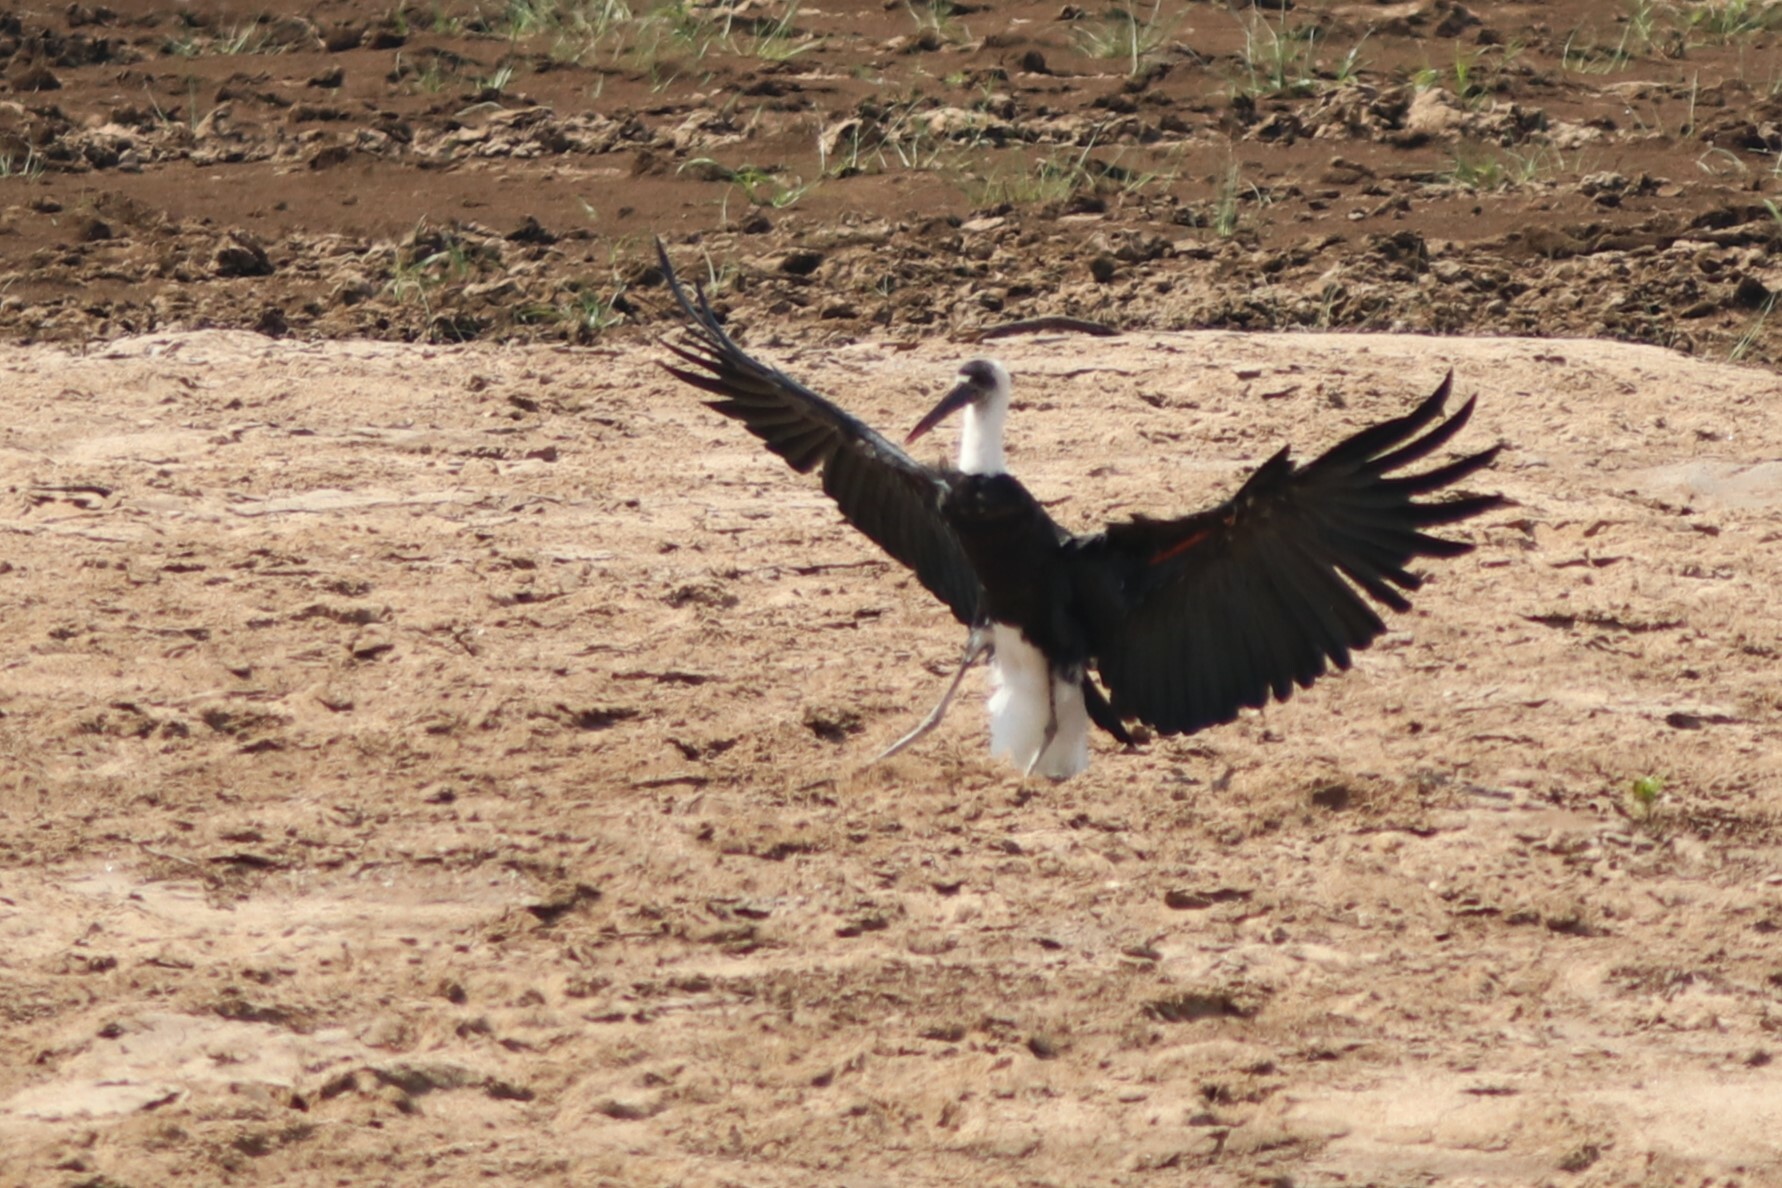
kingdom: Animalia
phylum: Chordata
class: Aves
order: Ciconiiformes
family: Ciconiidae
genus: Ciconia
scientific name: Ciconia microscelis
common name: African woollyneck
